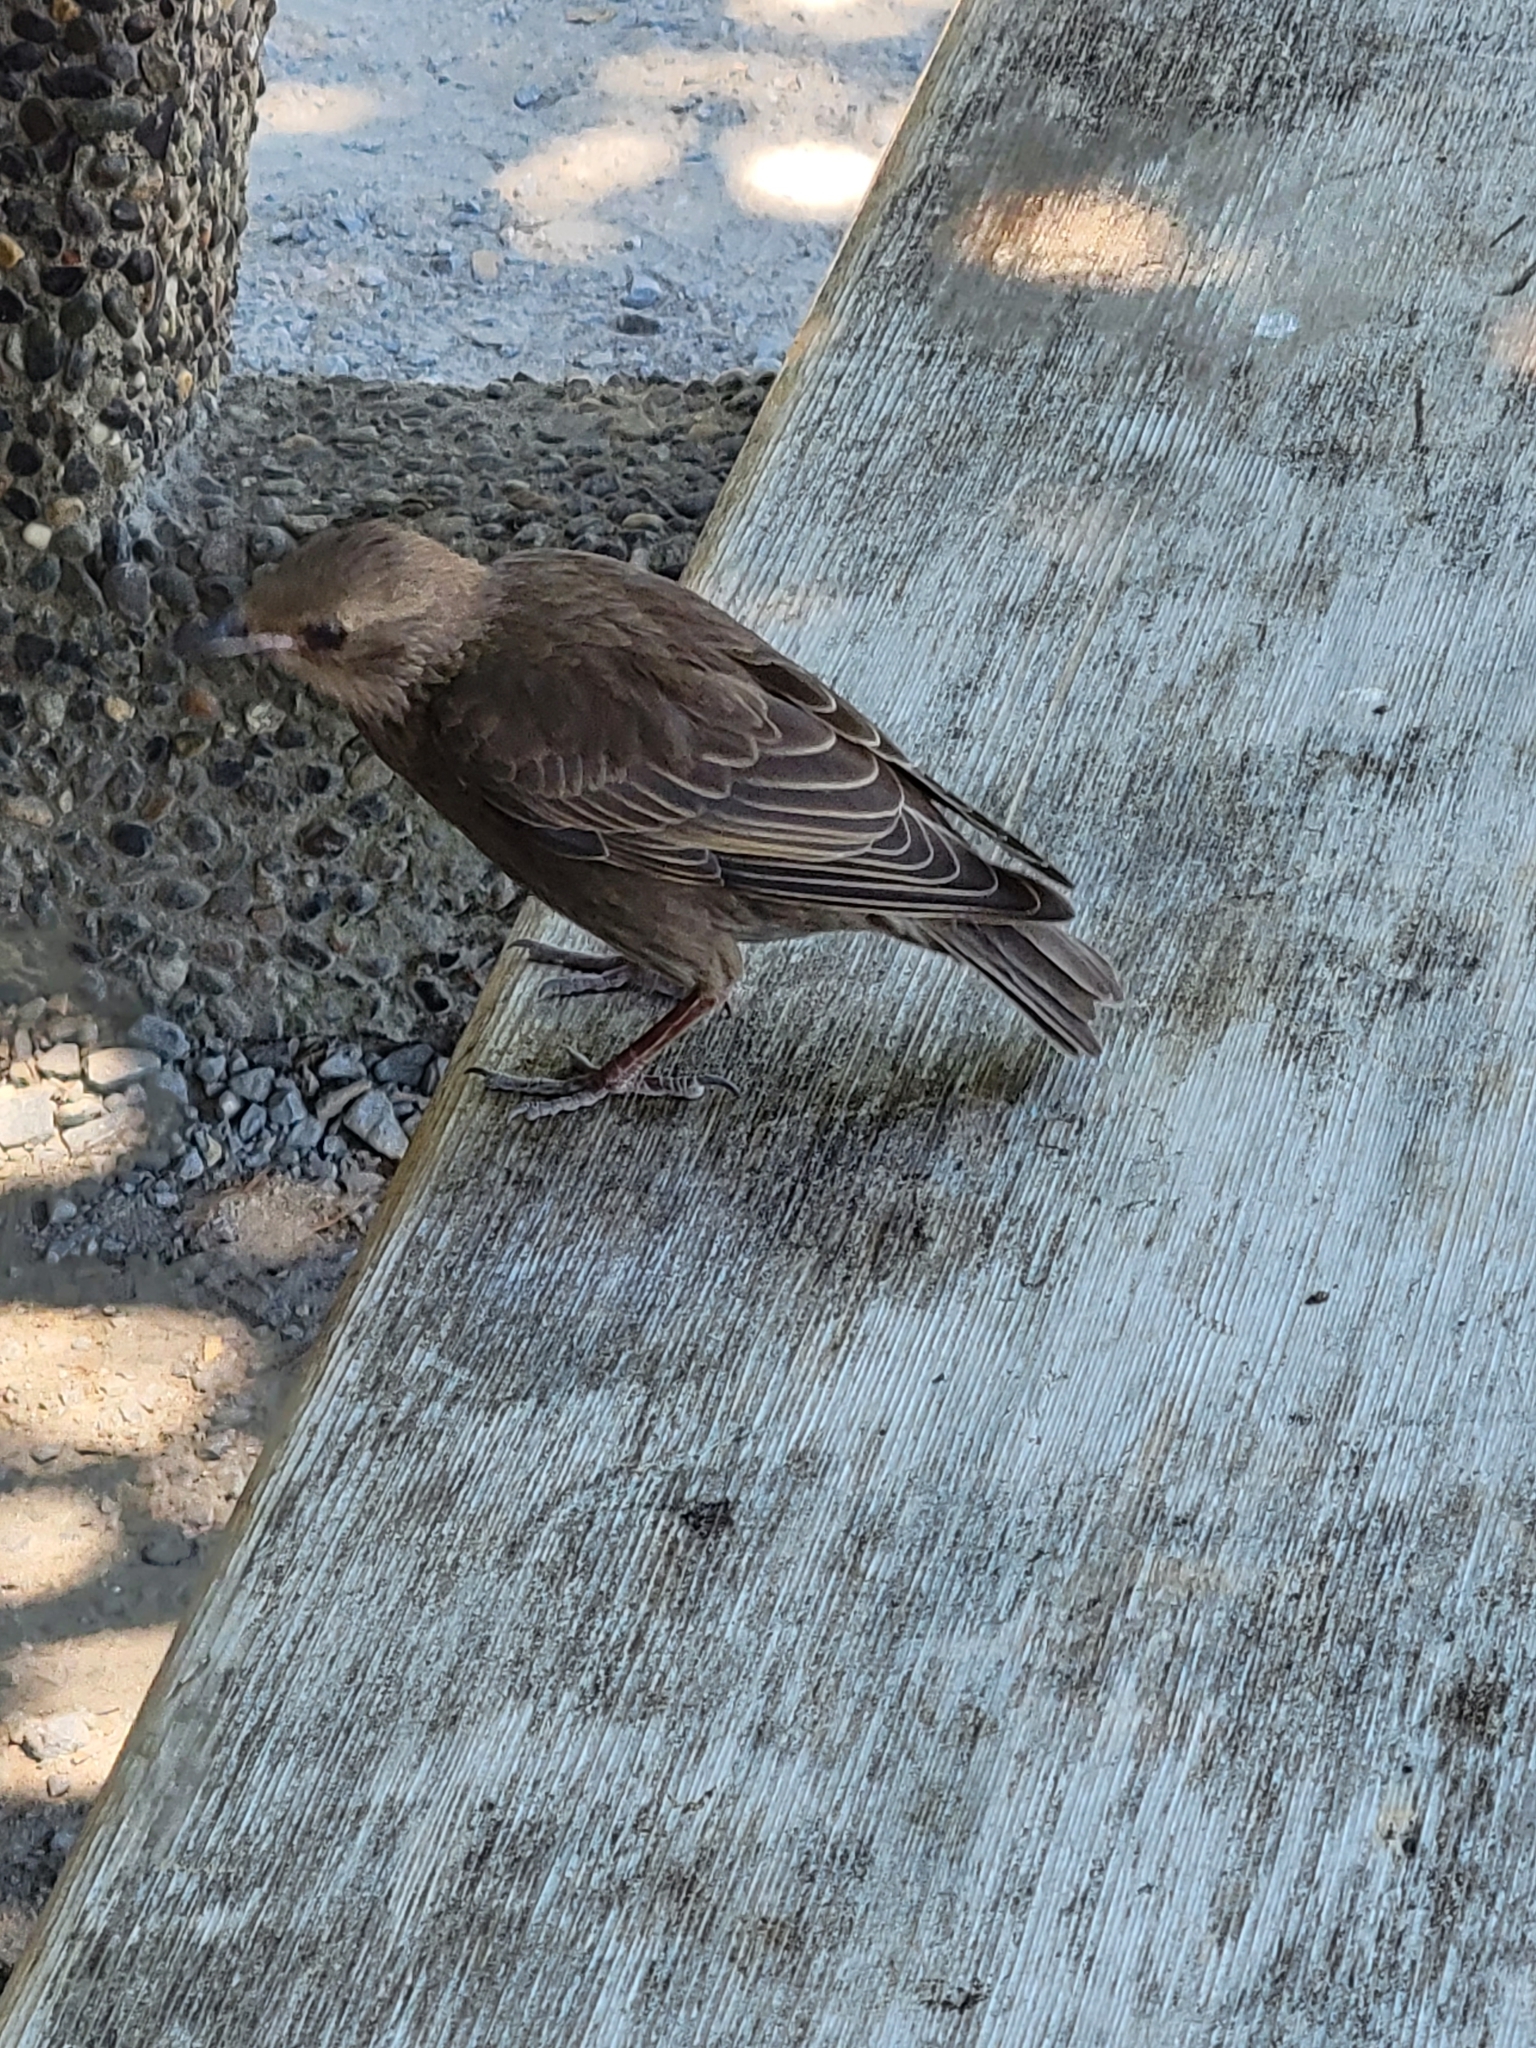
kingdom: Animalia
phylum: Chordata
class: Aves
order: Passeriformes
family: Sturnidae
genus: Sturnus
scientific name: Sturnus vulgaris
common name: Common starling
